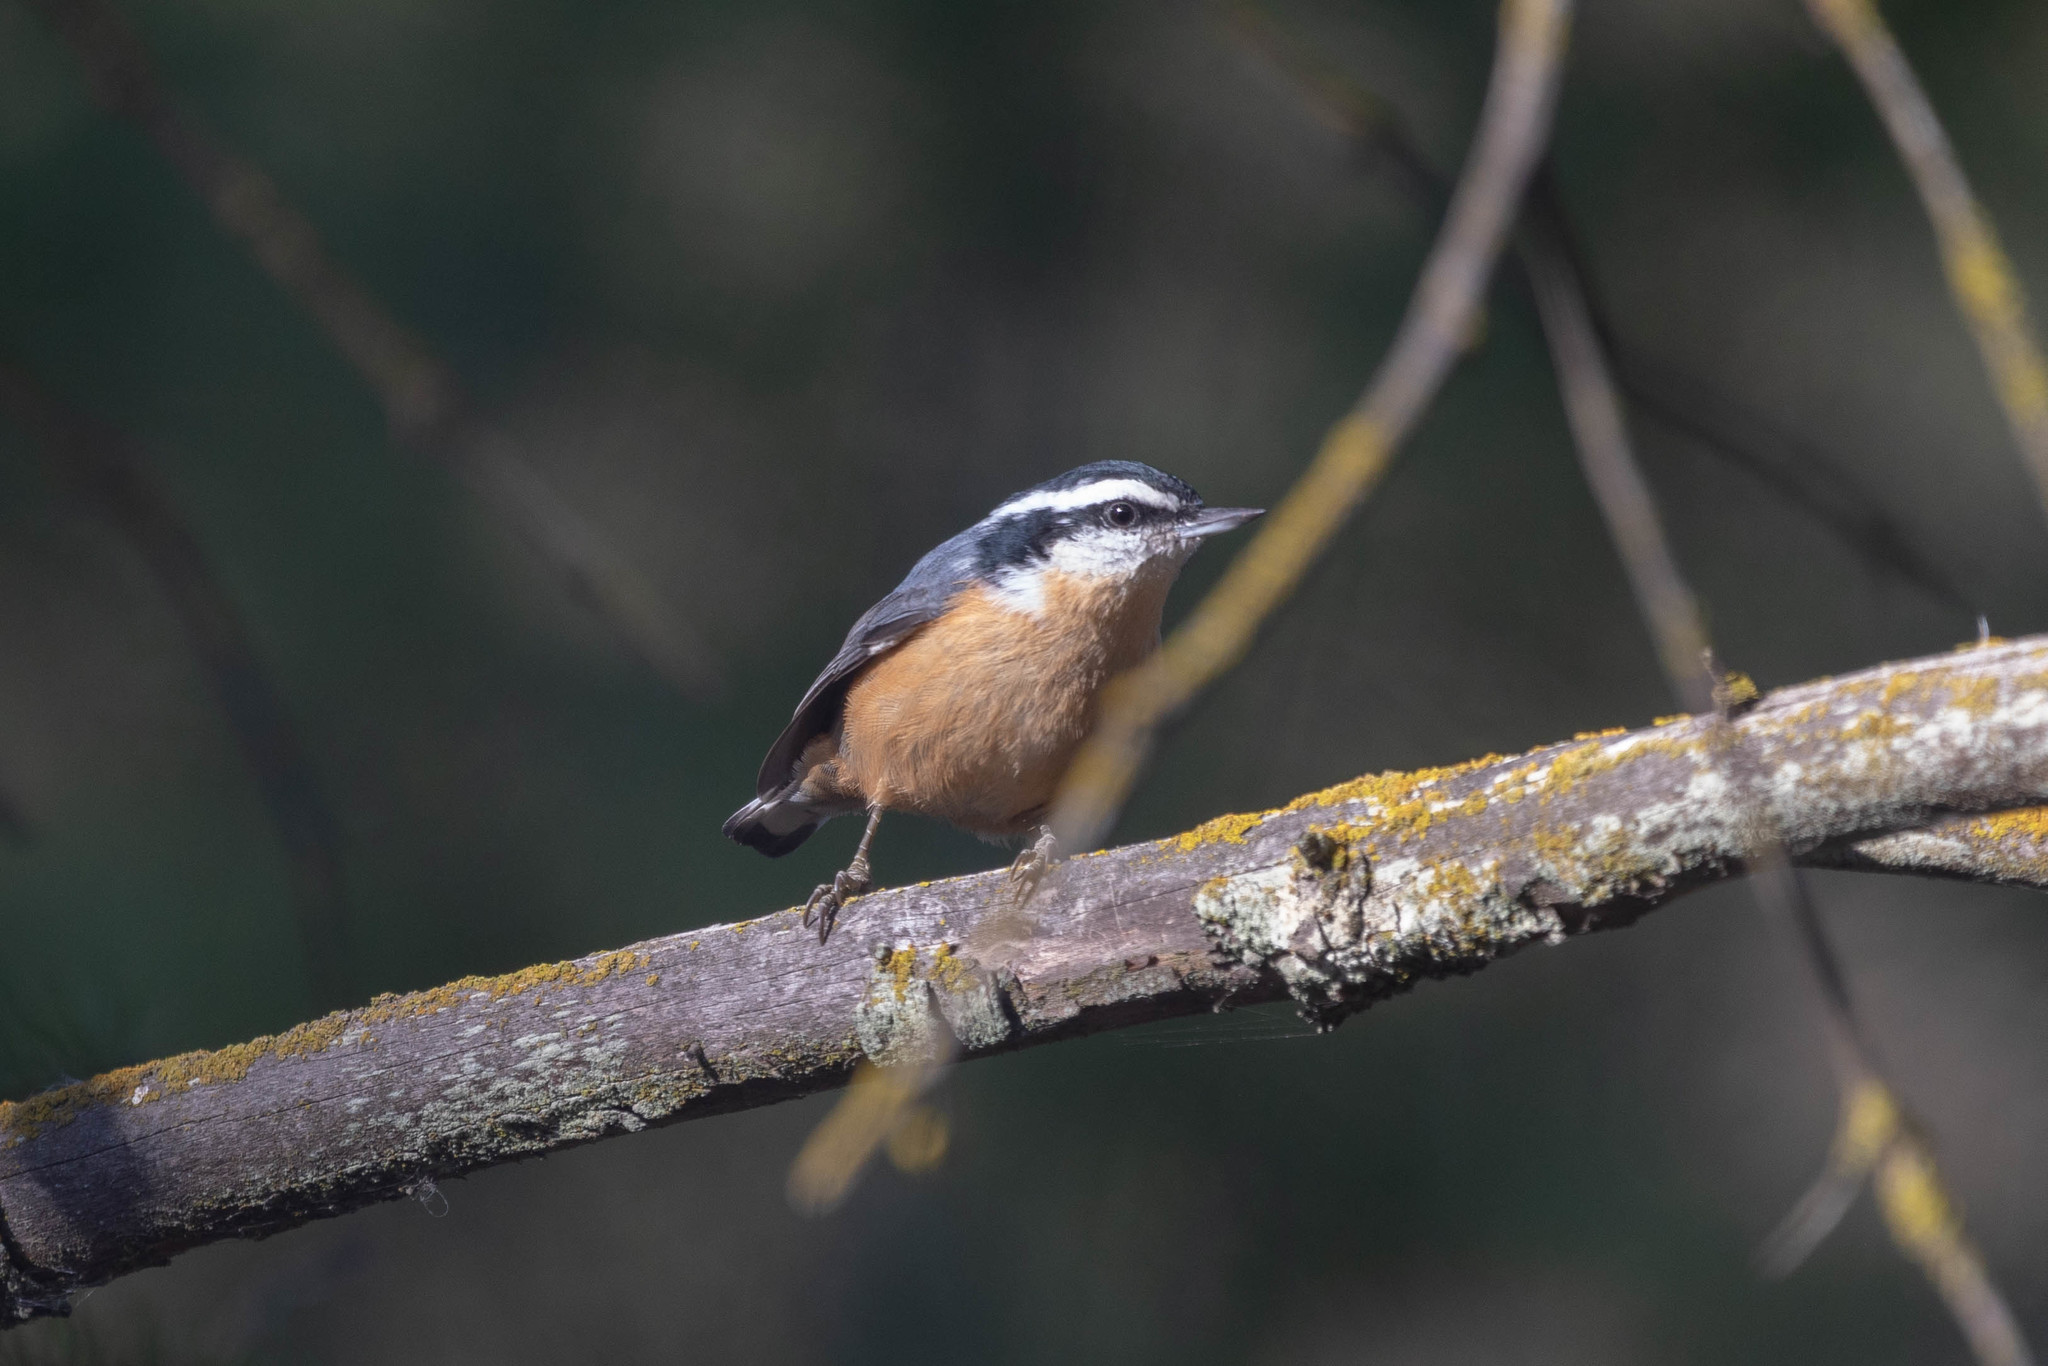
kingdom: Animalia
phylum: Chordata
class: Aves
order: Passeriformes
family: Sittidae
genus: Sitta
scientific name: Sitta canadensis
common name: Red-breasted nuthatch
